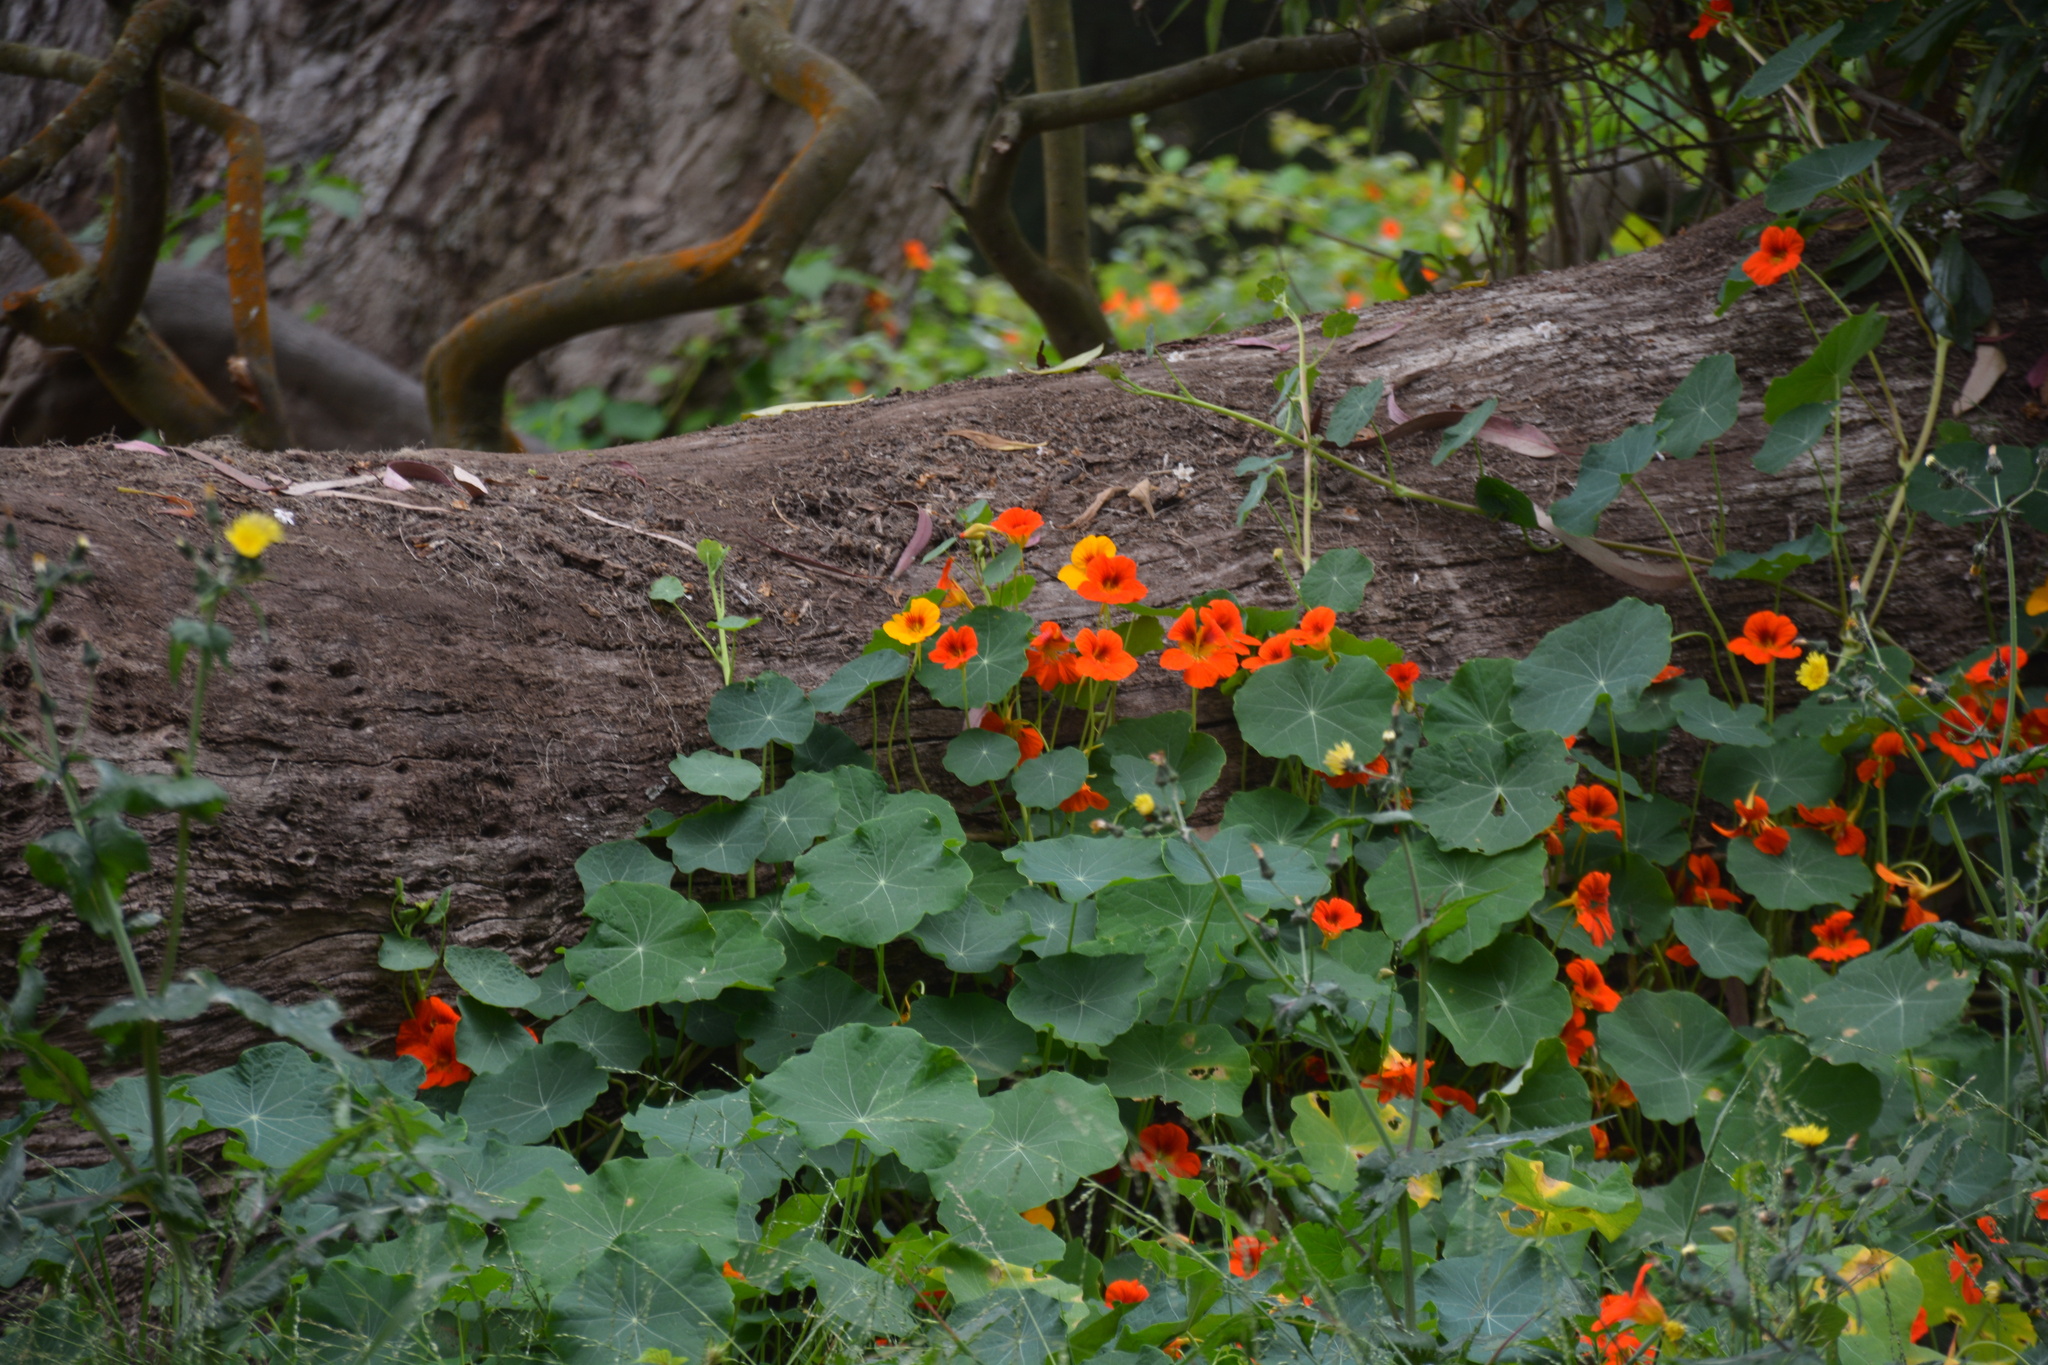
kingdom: Plantae
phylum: Tracheophyta
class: Magnoliopsida
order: Brassicales
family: Tropaeolaceae
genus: Tropaeolum
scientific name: Tropaeolum majus
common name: Nasturtium
